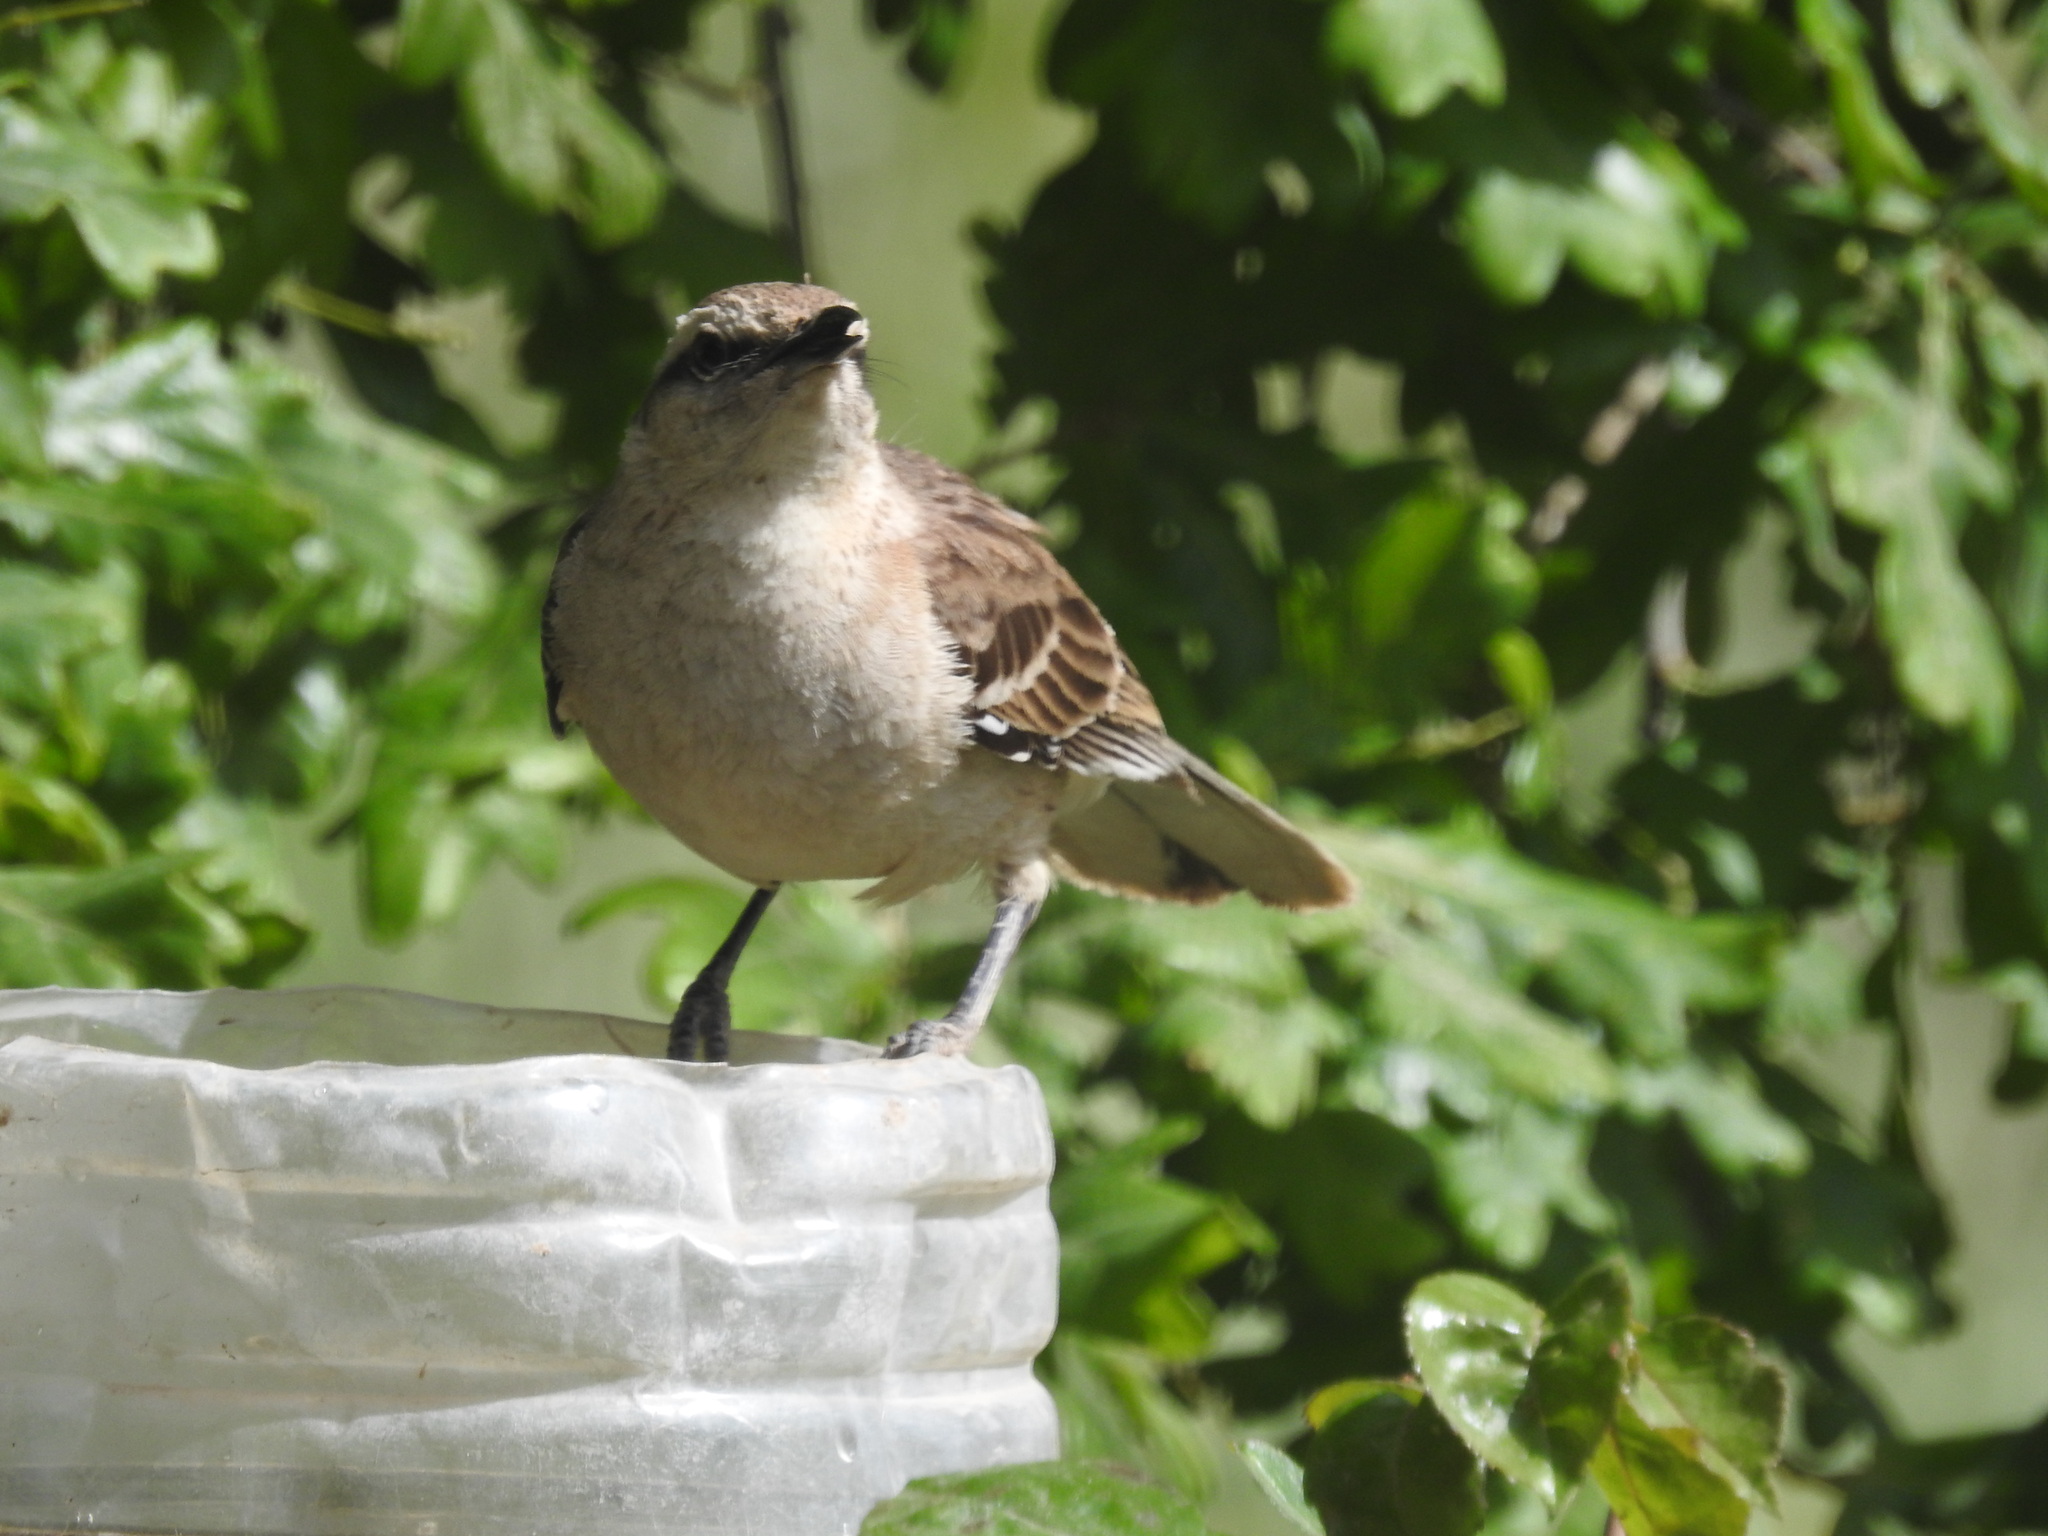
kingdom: Animalia
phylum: Chordata
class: Aves
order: Passeriformes
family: Mimidae
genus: Mimus
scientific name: Mimus saturninus
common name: Chalk-browed mockingbird
